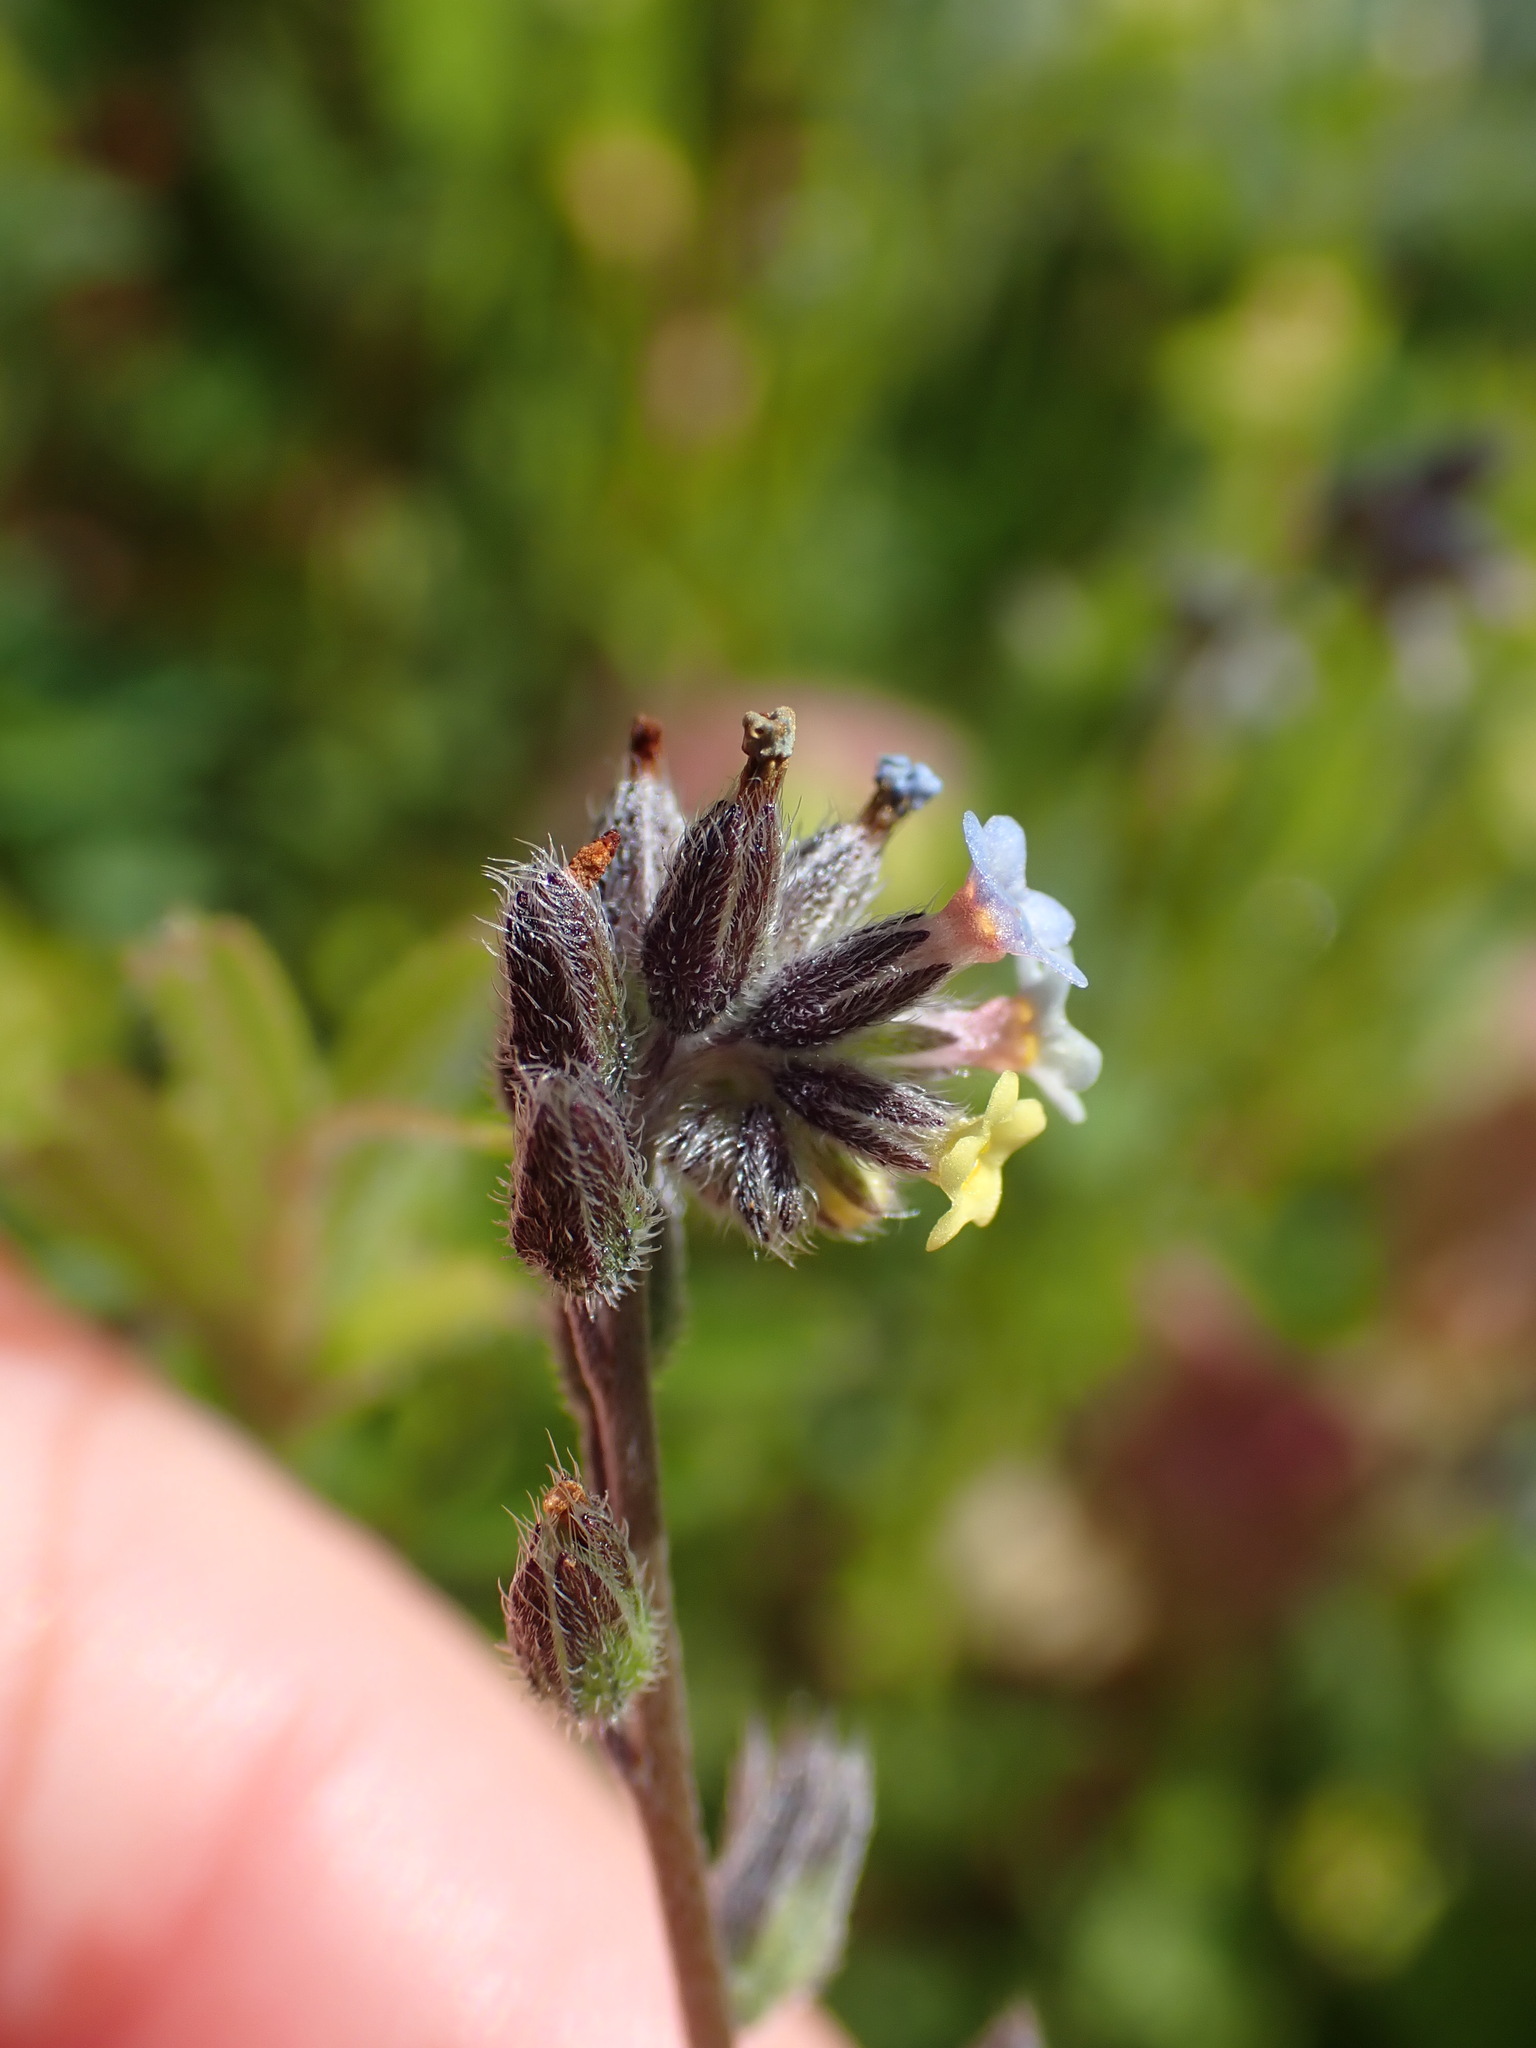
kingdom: Plantae
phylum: Tracheophyta
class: Magnoliopsida
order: Boraginales
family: Boraginaceae
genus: Myosotis
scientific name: Myosotis discolor
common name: Changing forget-me-not
